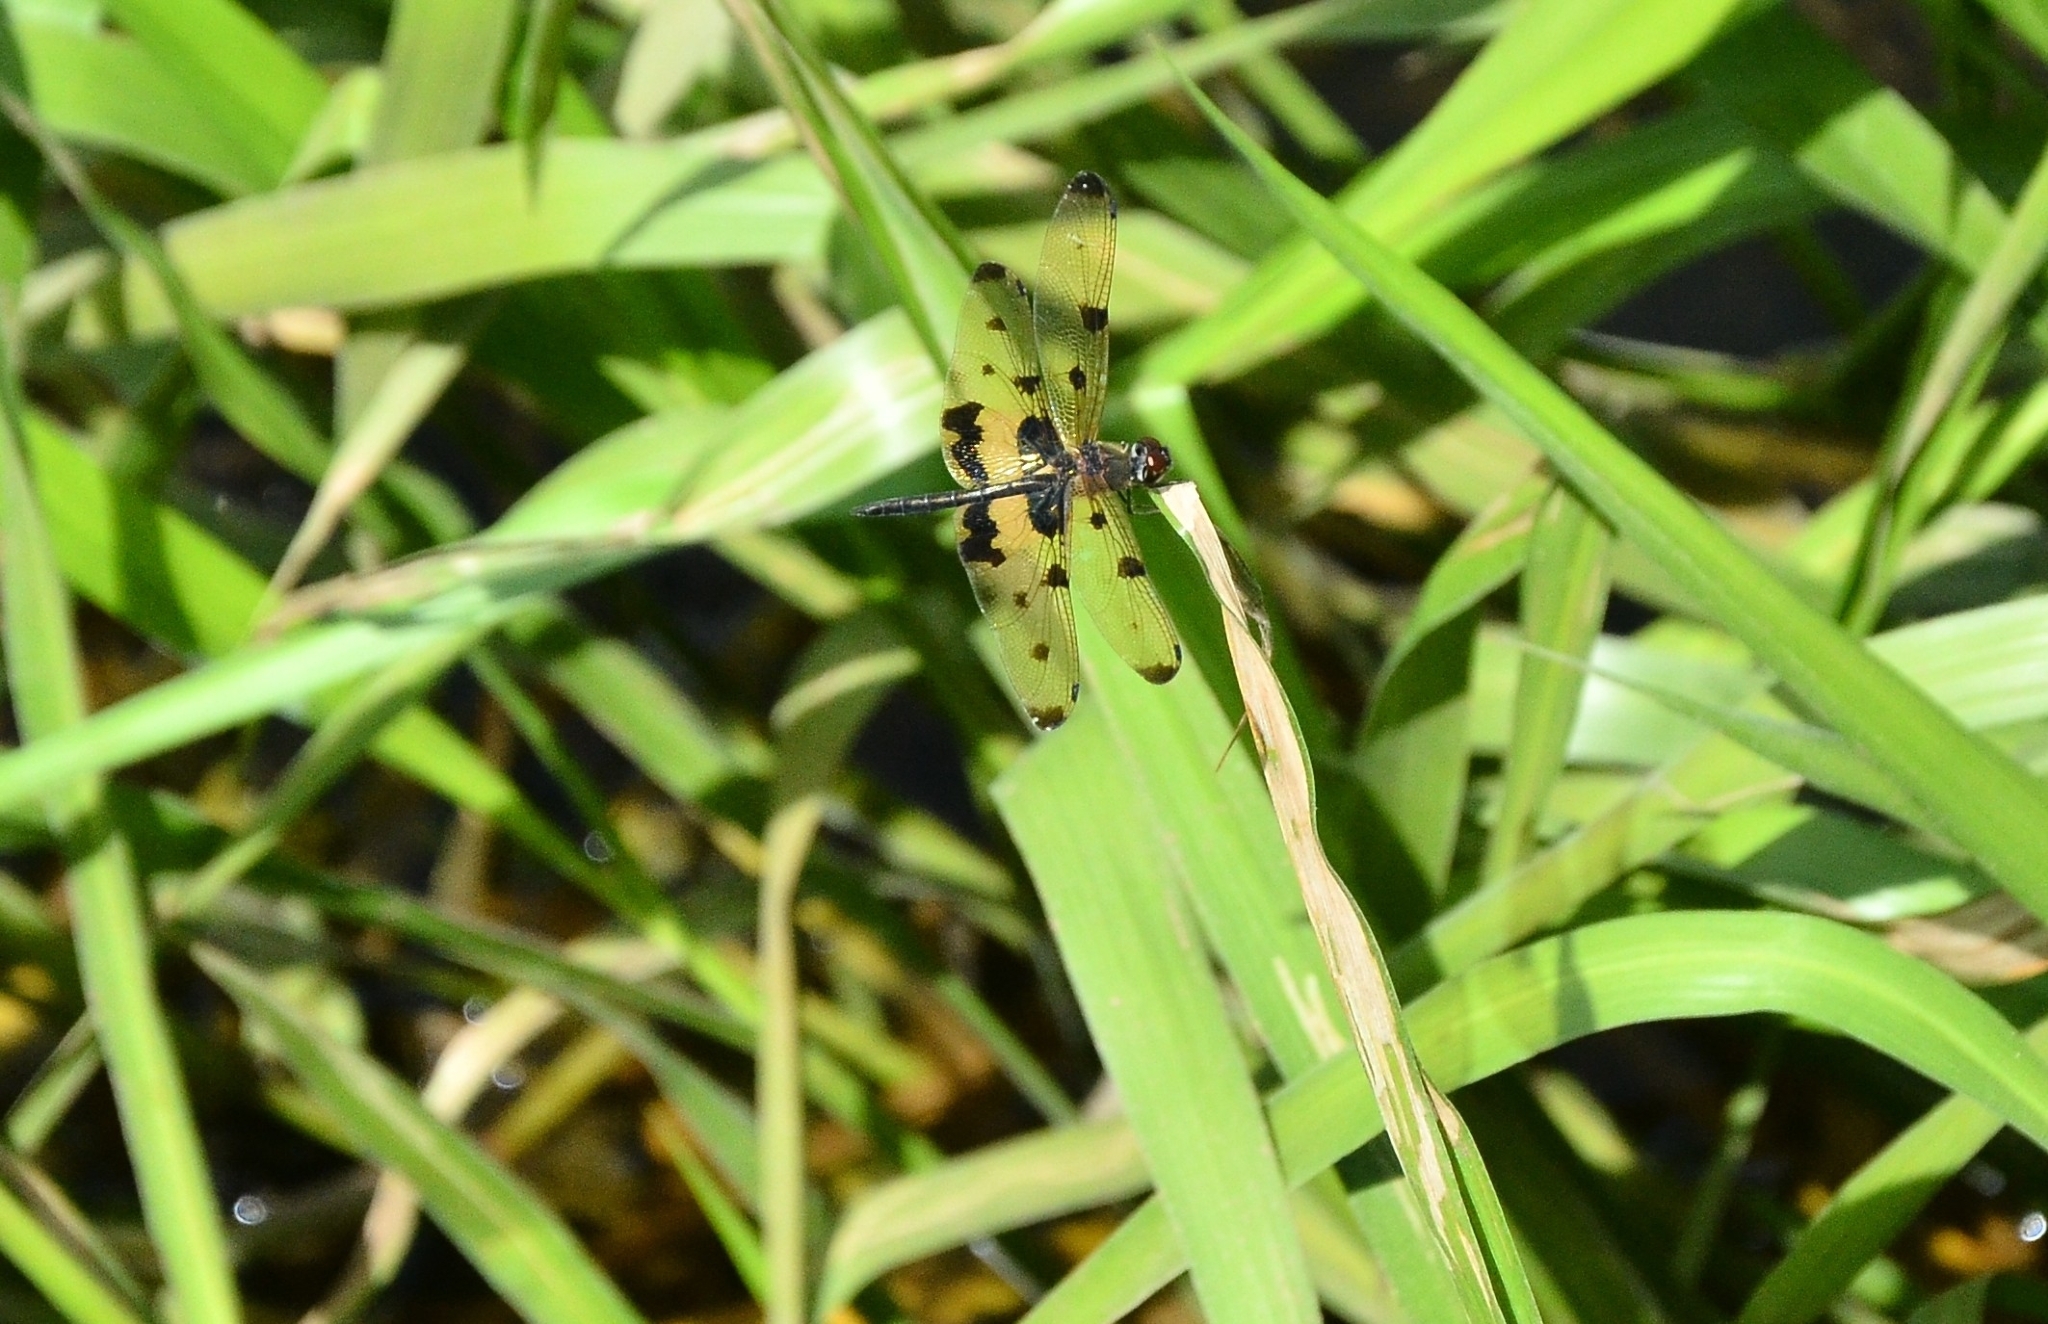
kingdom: Animalia
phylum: Arthropoda
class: Insecta
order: Odonata
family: Libellulidae
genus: Rhyothemis
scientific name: Rhyothemis variegata
